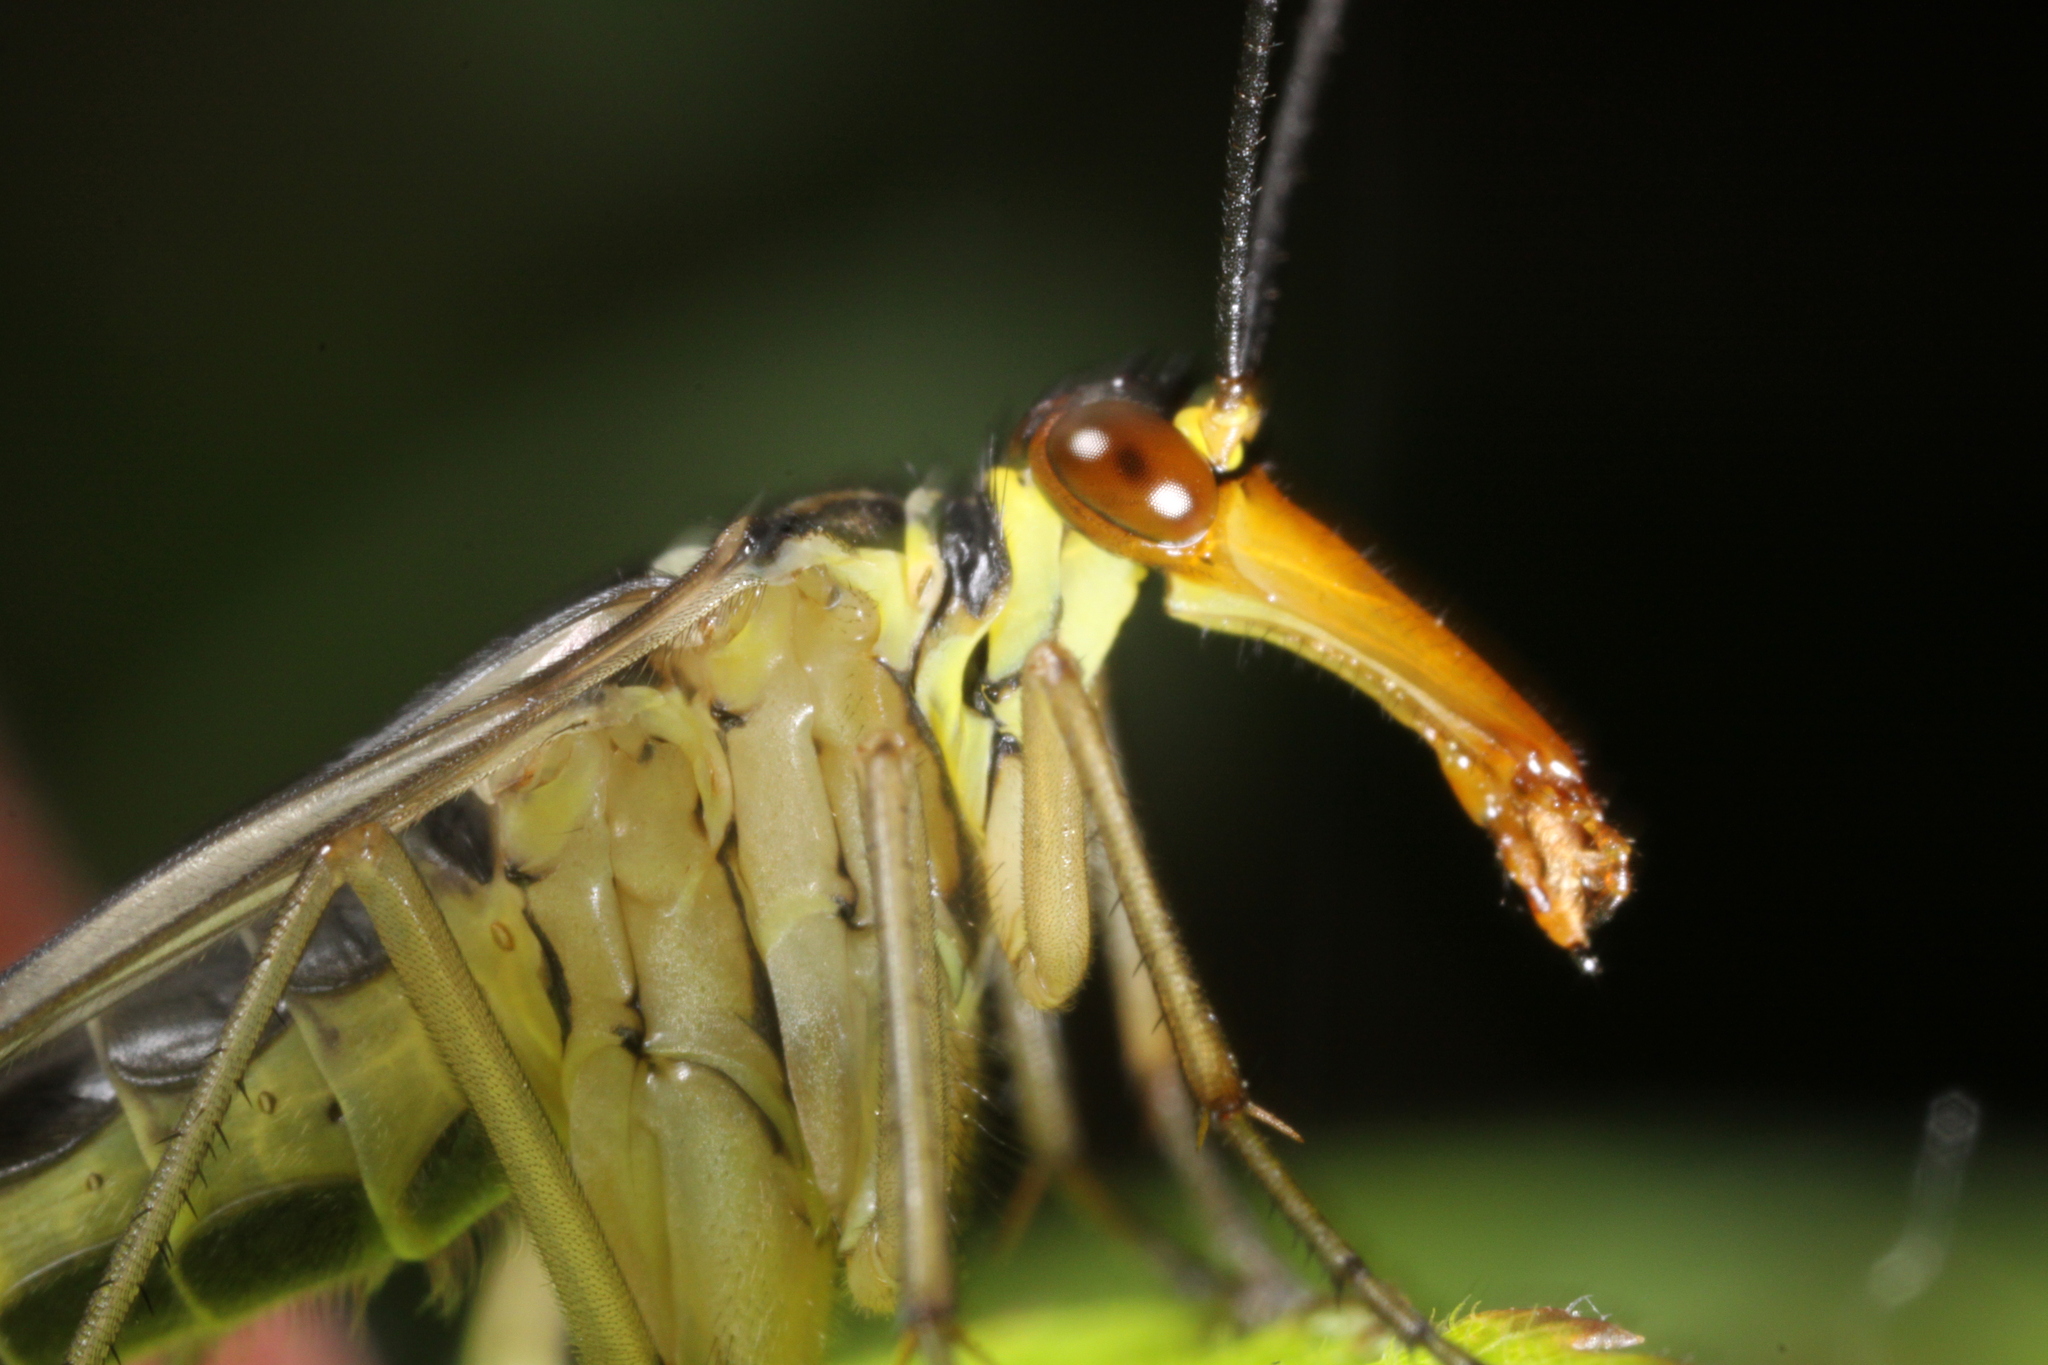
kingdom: Animalia
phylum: Arthropoda
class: Insecta
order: Mecoptera
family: Panorpidae
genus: Panorpa
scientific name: Panorpa
